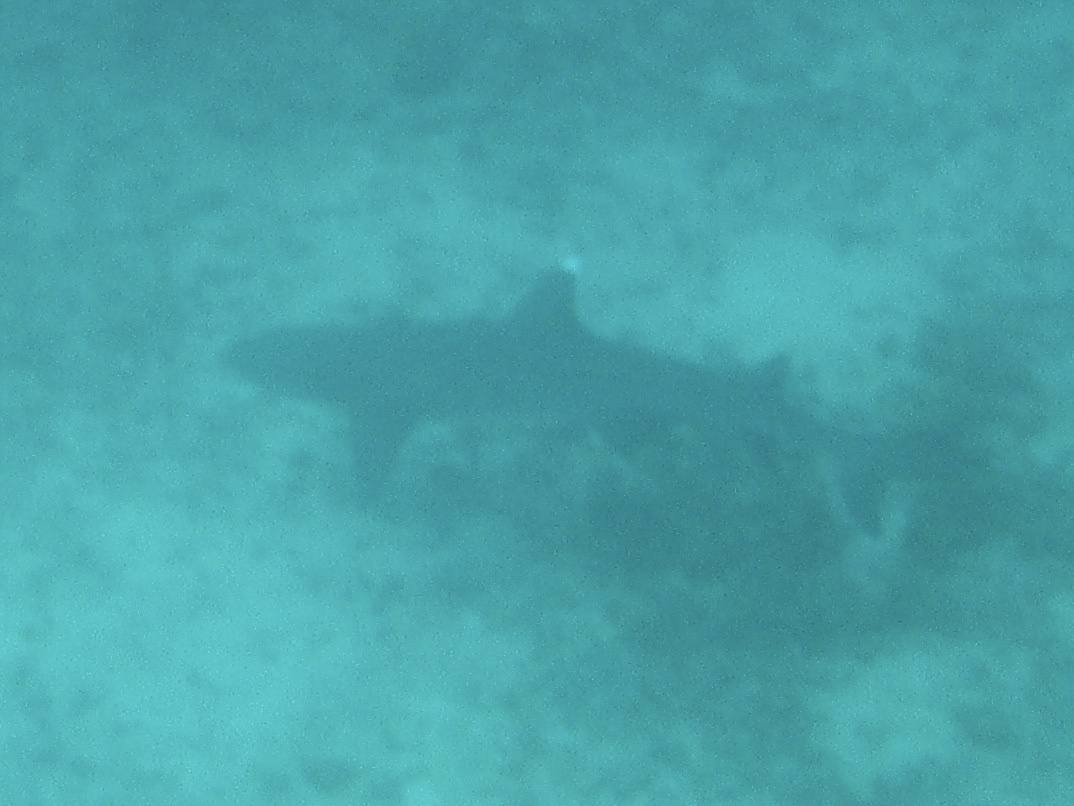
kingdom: Animalia
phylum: Chordata
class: Elasmobranchii
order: Carcharhiniformes
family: Carcharhinidae
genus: Triaenodon
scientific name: Triaenodon obesus
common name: Whitetip reef shark
